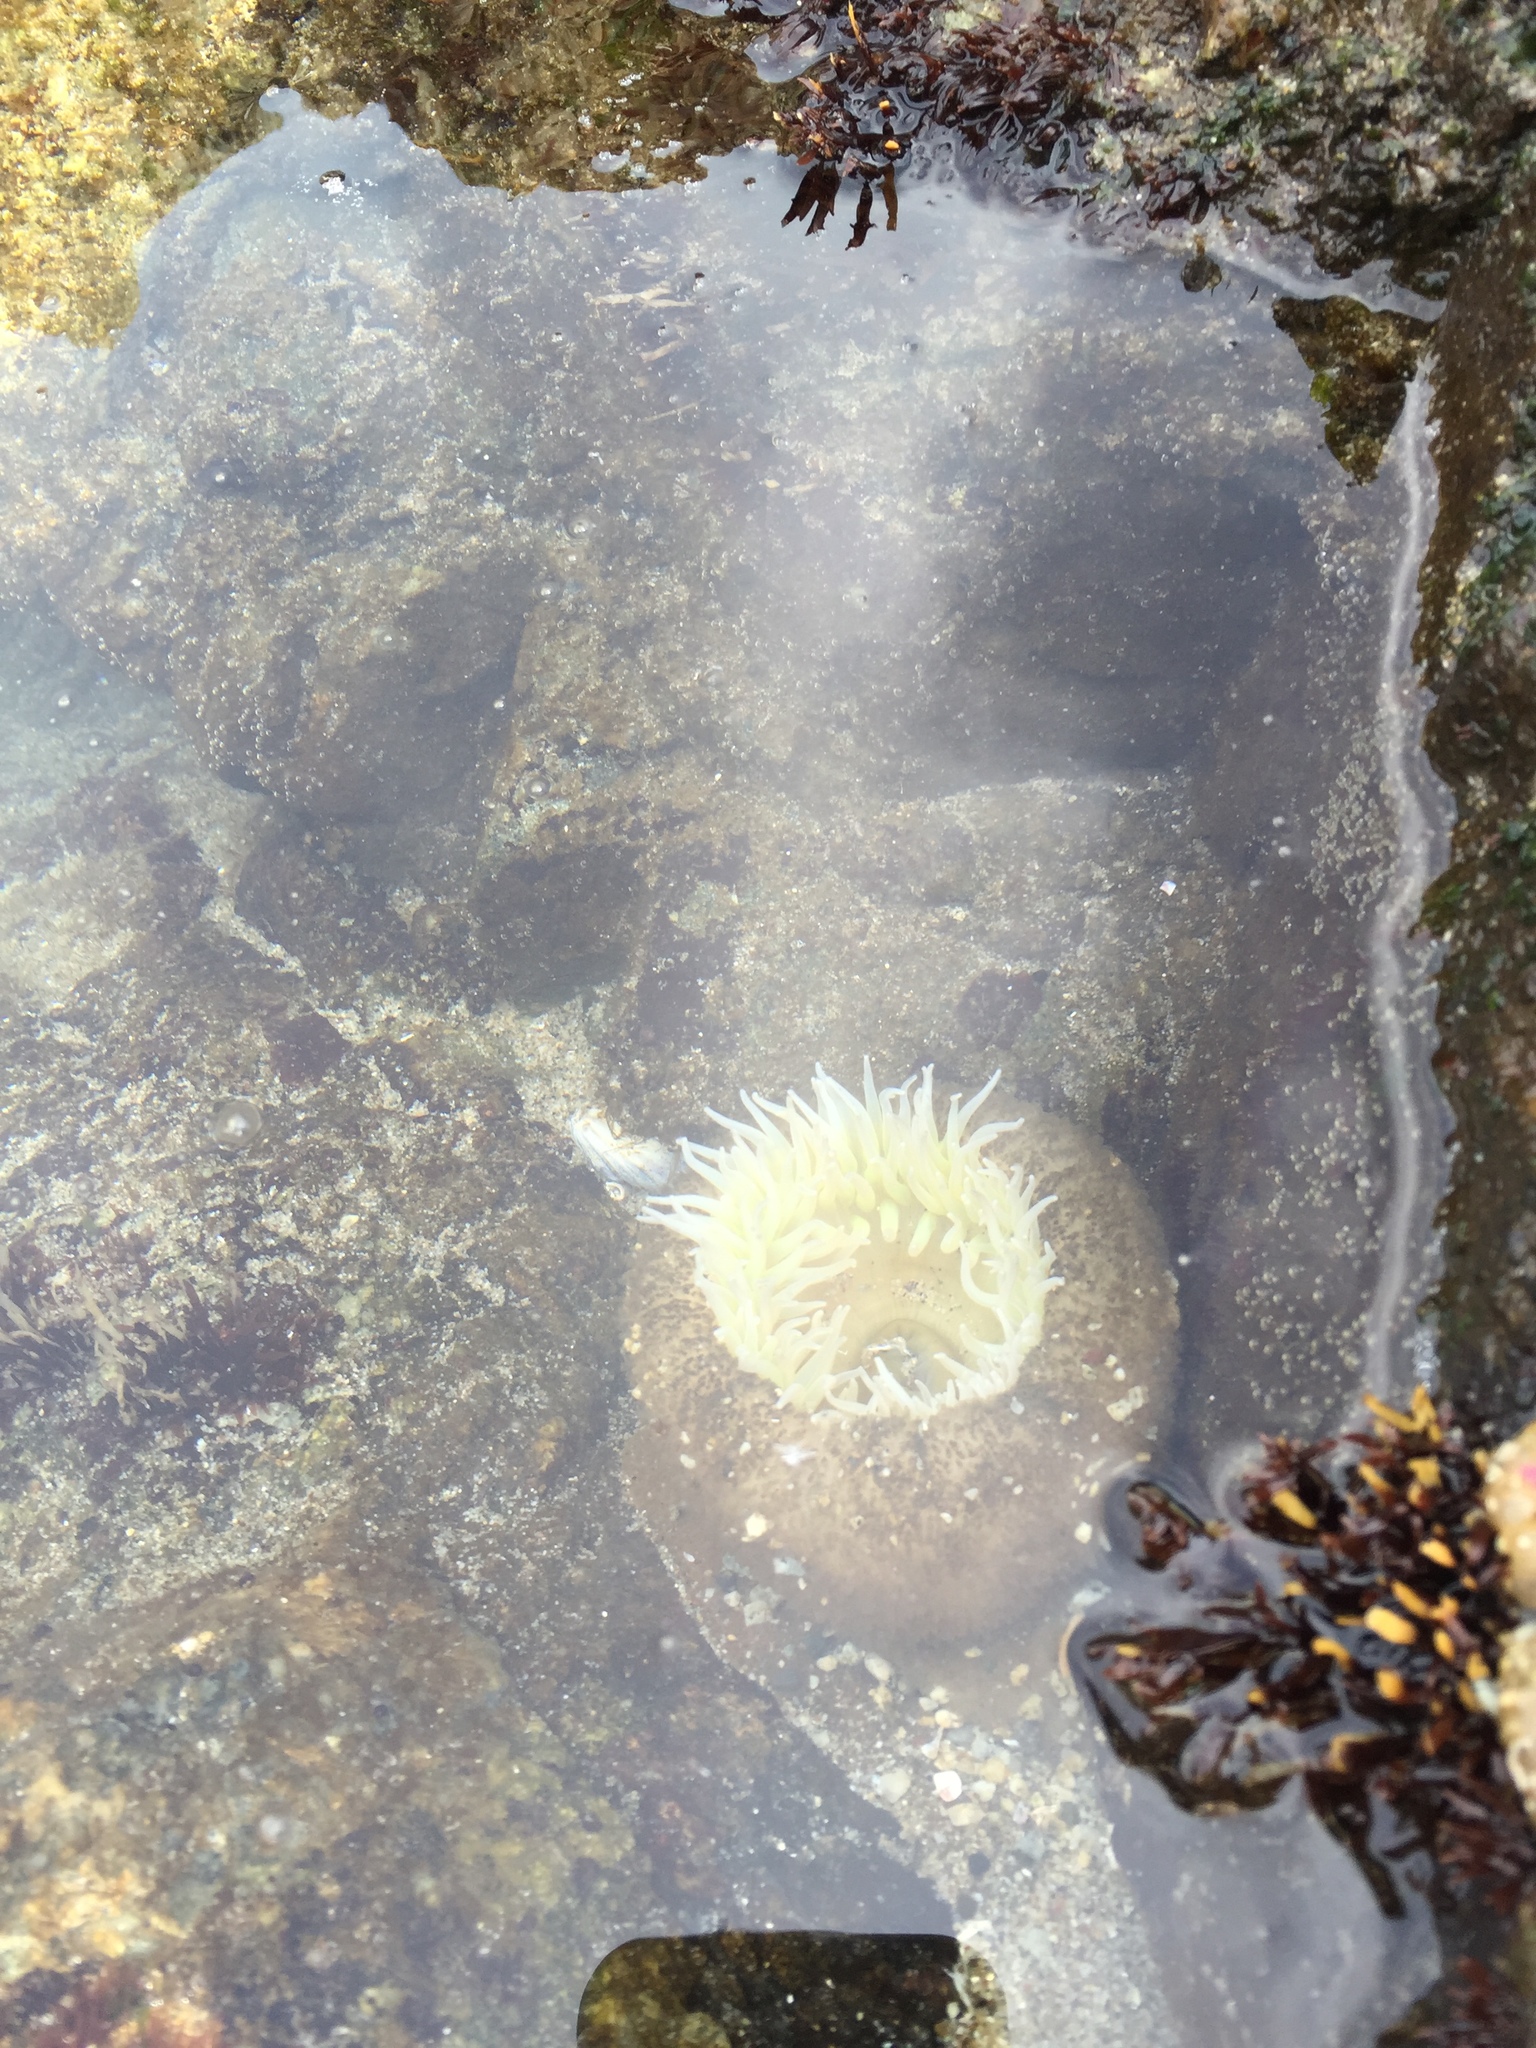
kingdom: Animalia
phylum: Cnidaria
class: Anthozoa
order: Actiniaria
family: Actiniidae
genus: Anthopleura
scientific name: Anthopleura xanthogrammica
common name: Giant green anemone
